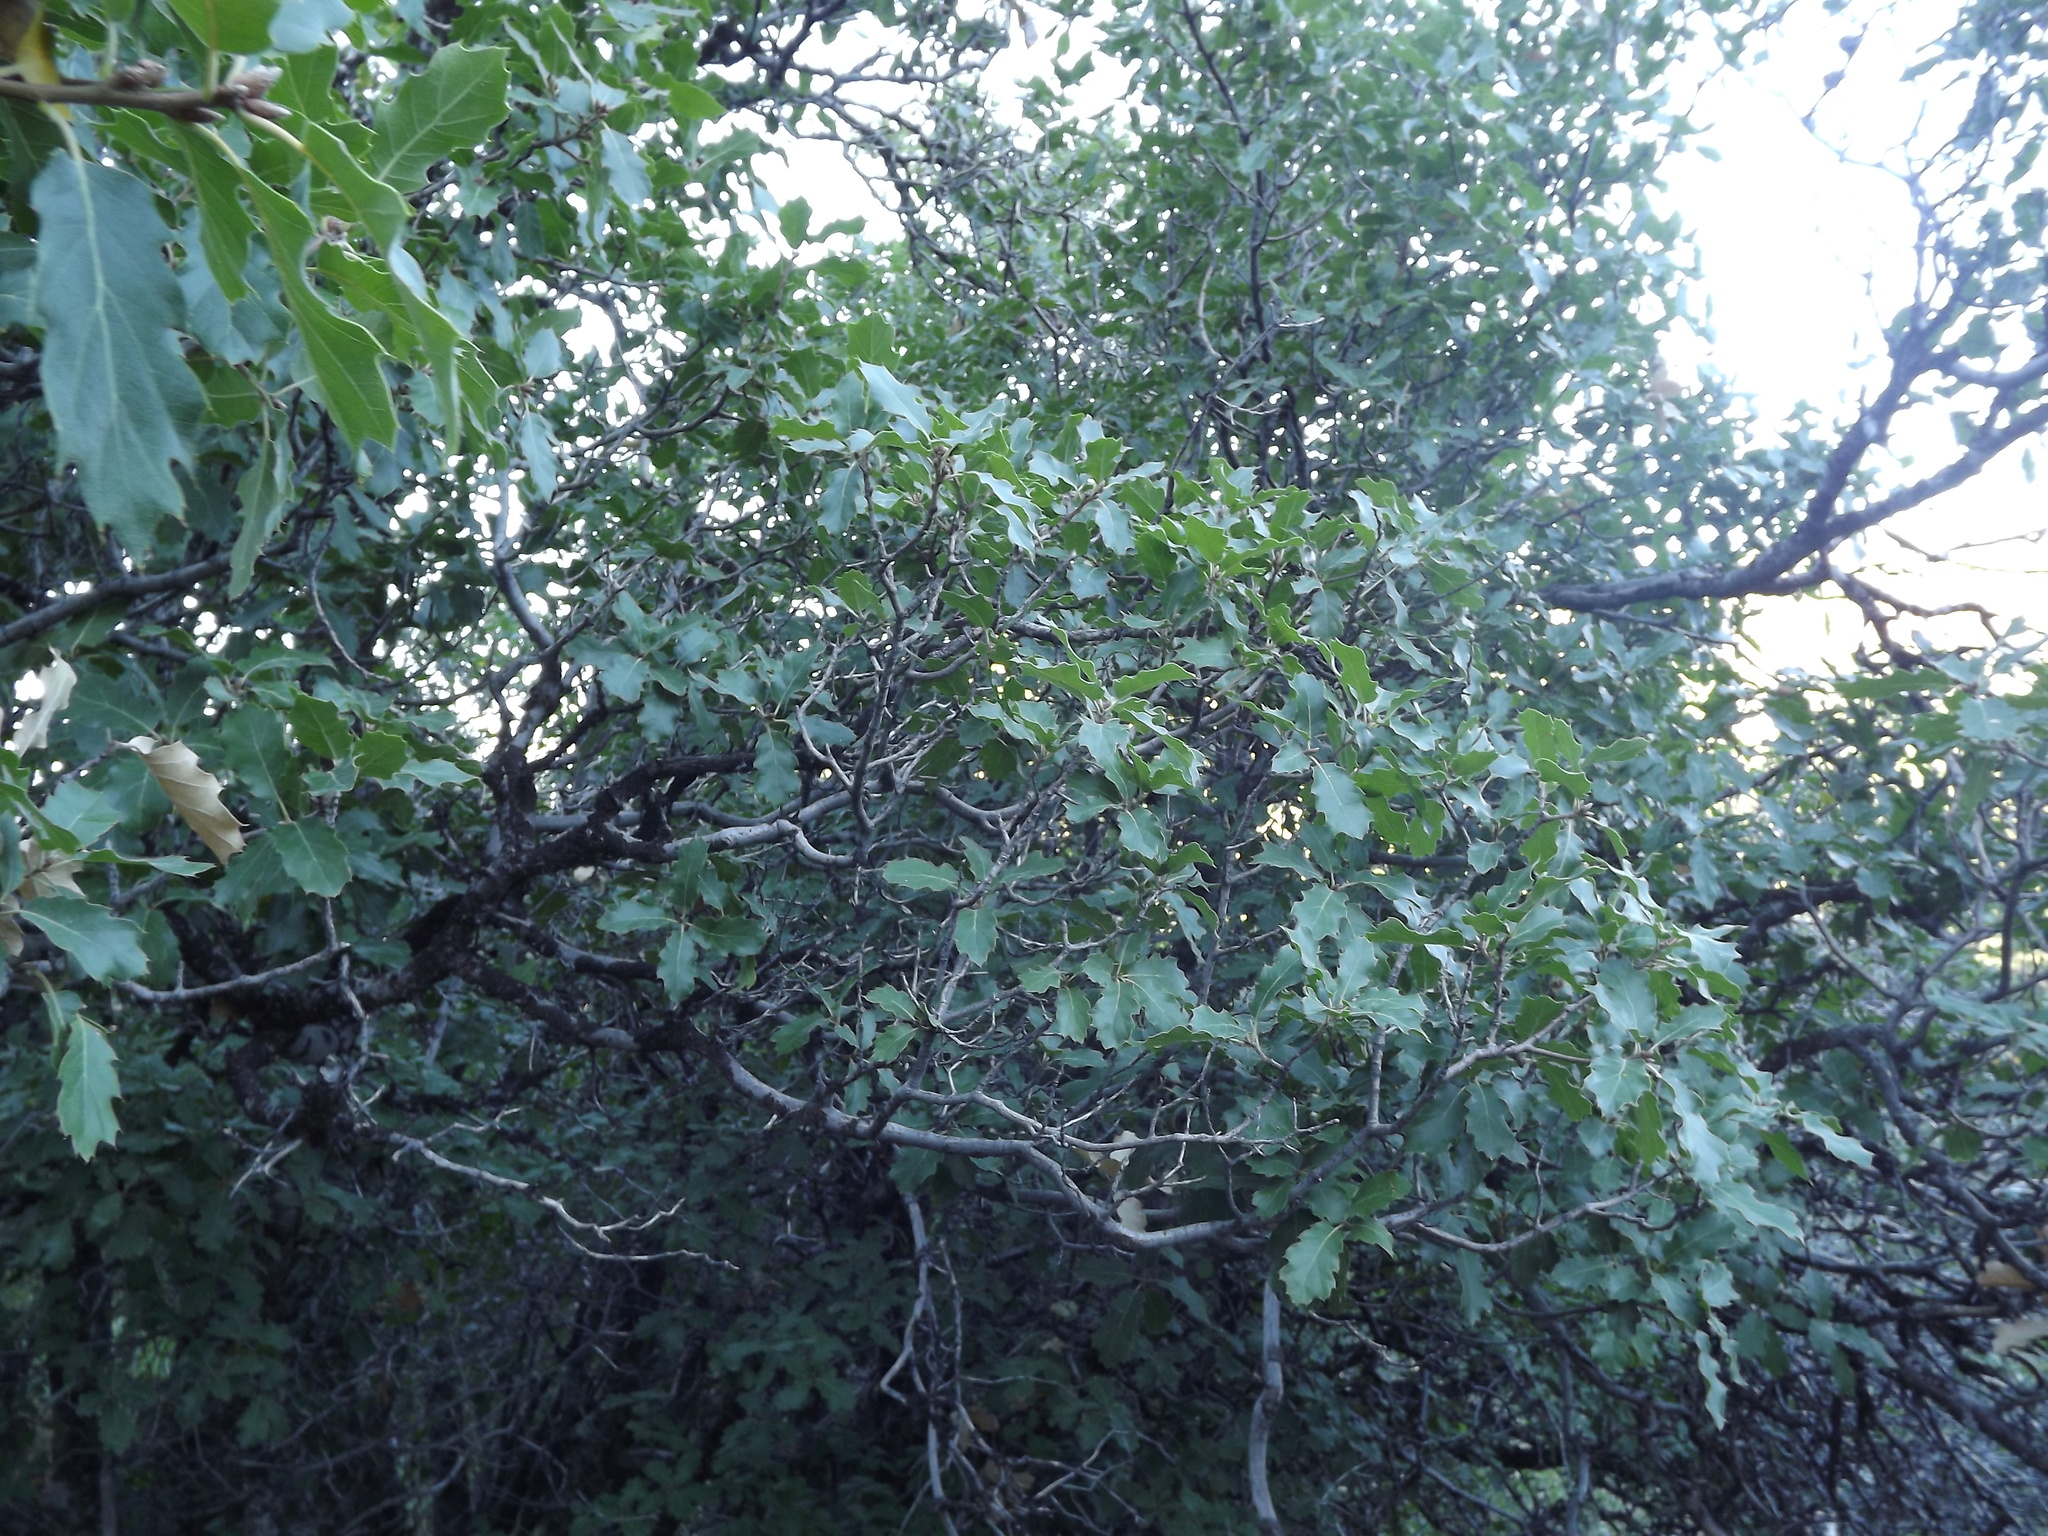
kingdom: Plantae
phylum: Tracheophyta
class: Magnoliopsida
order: Fagales
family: Fagaceae
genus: Quercus
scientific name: Quercus morehus
